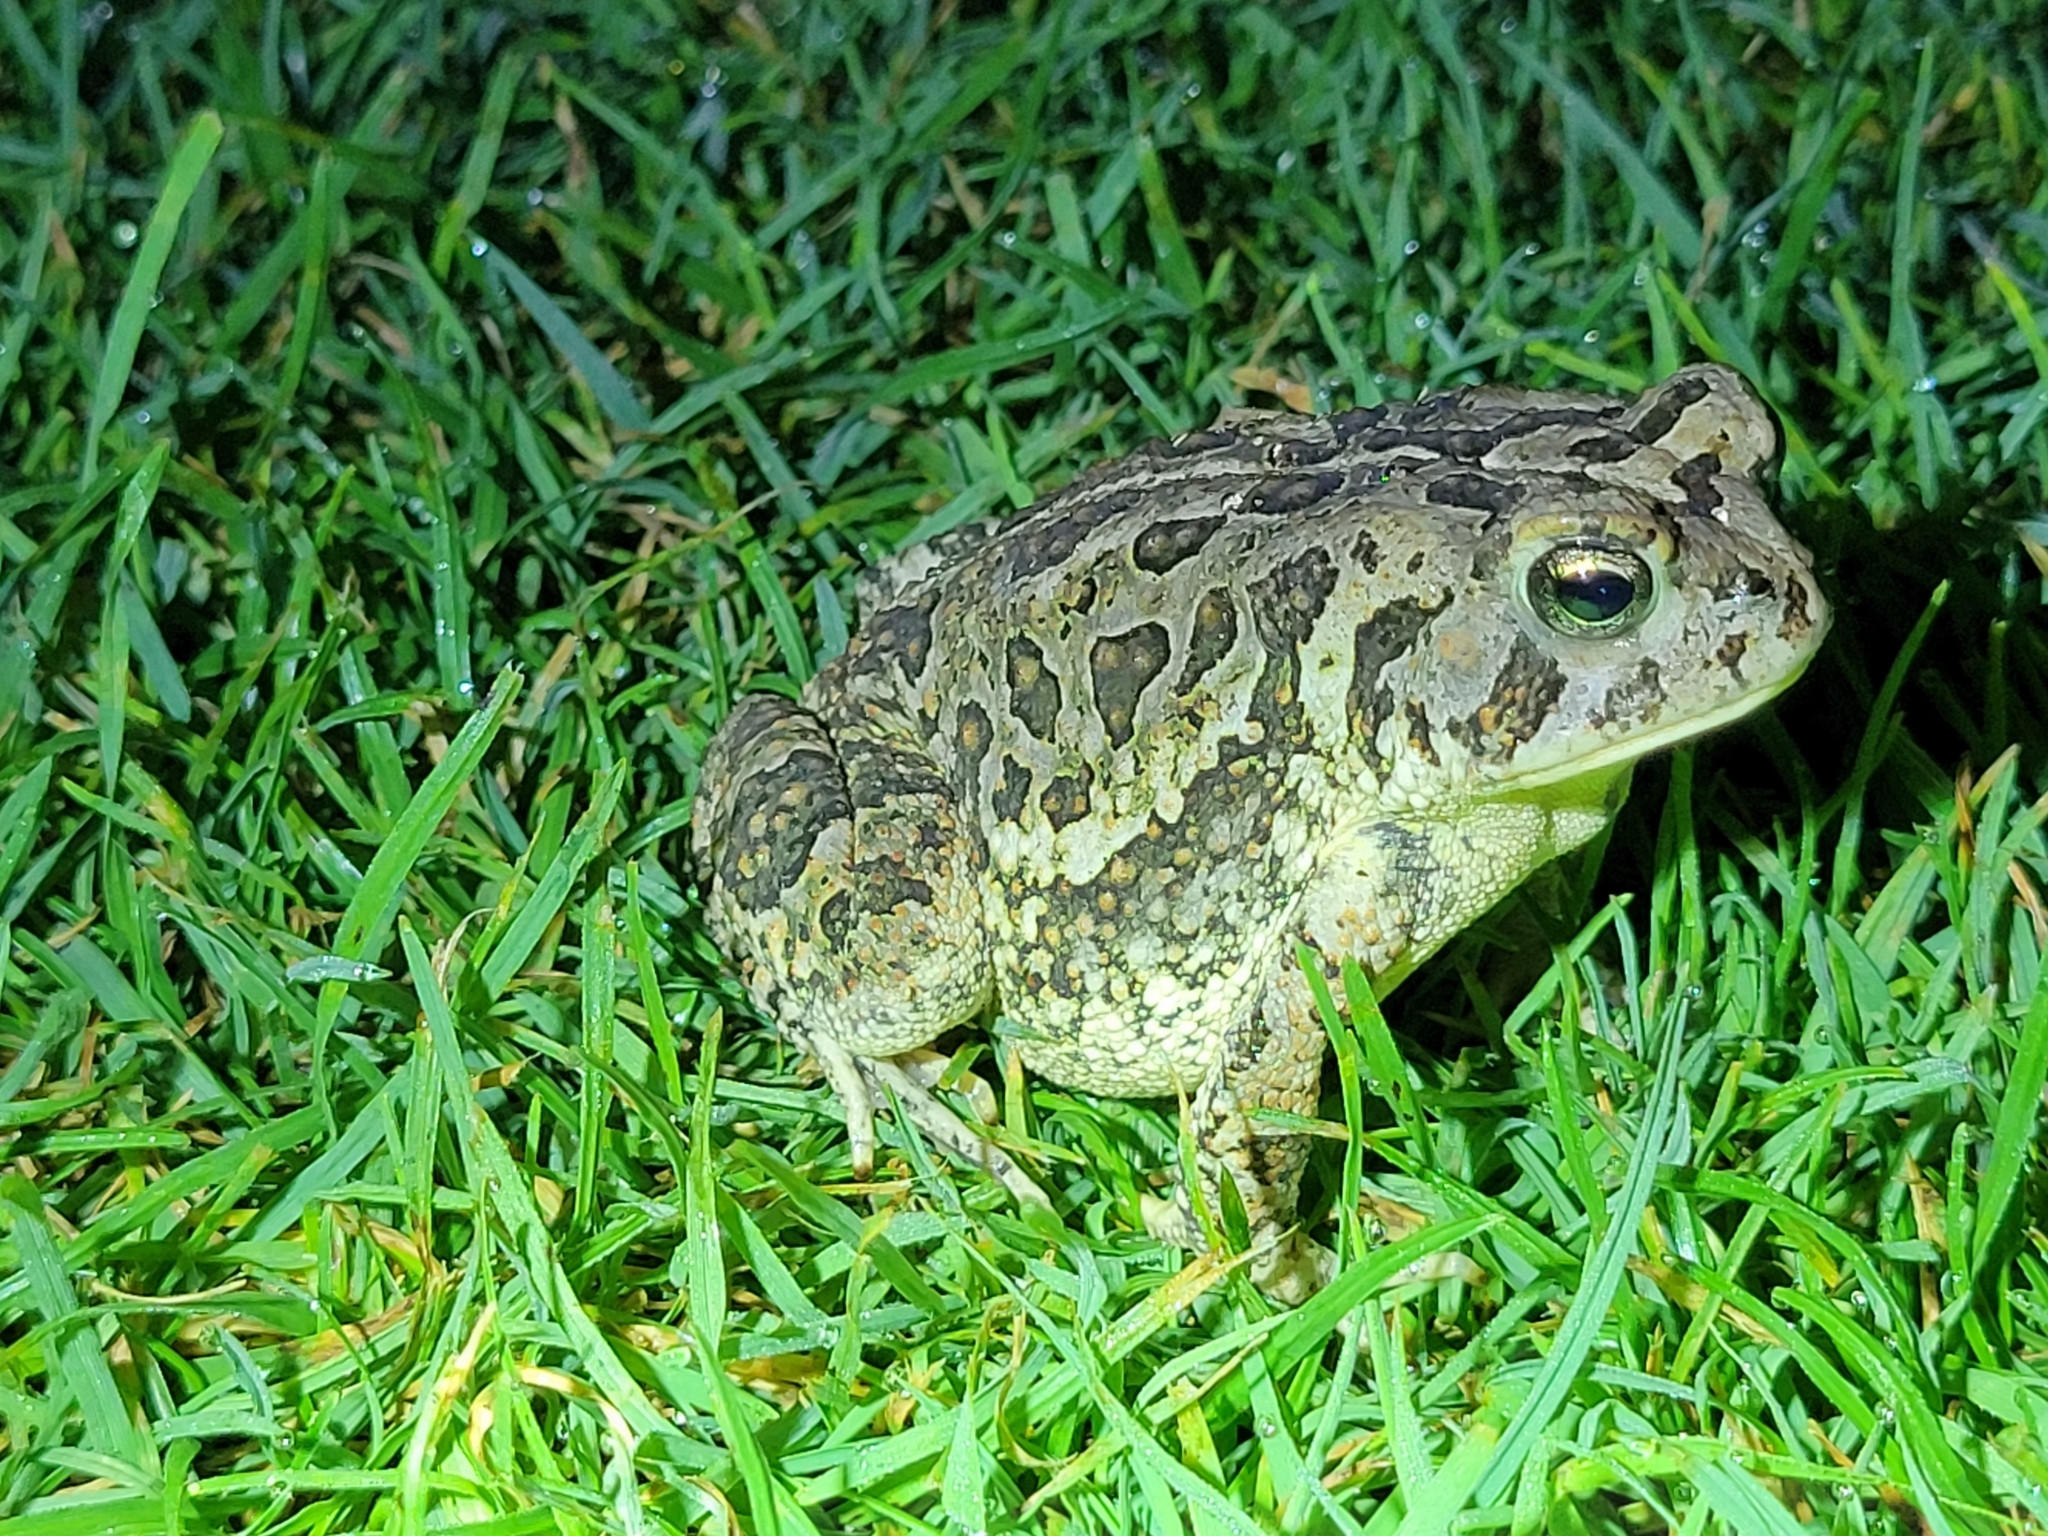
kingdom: Animalia
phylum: Chordata
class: Amphibia
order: Anura
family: Bufonidae
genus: Anaxyrus
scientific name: Anaxyrus fowleri
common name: Fowler's toad
